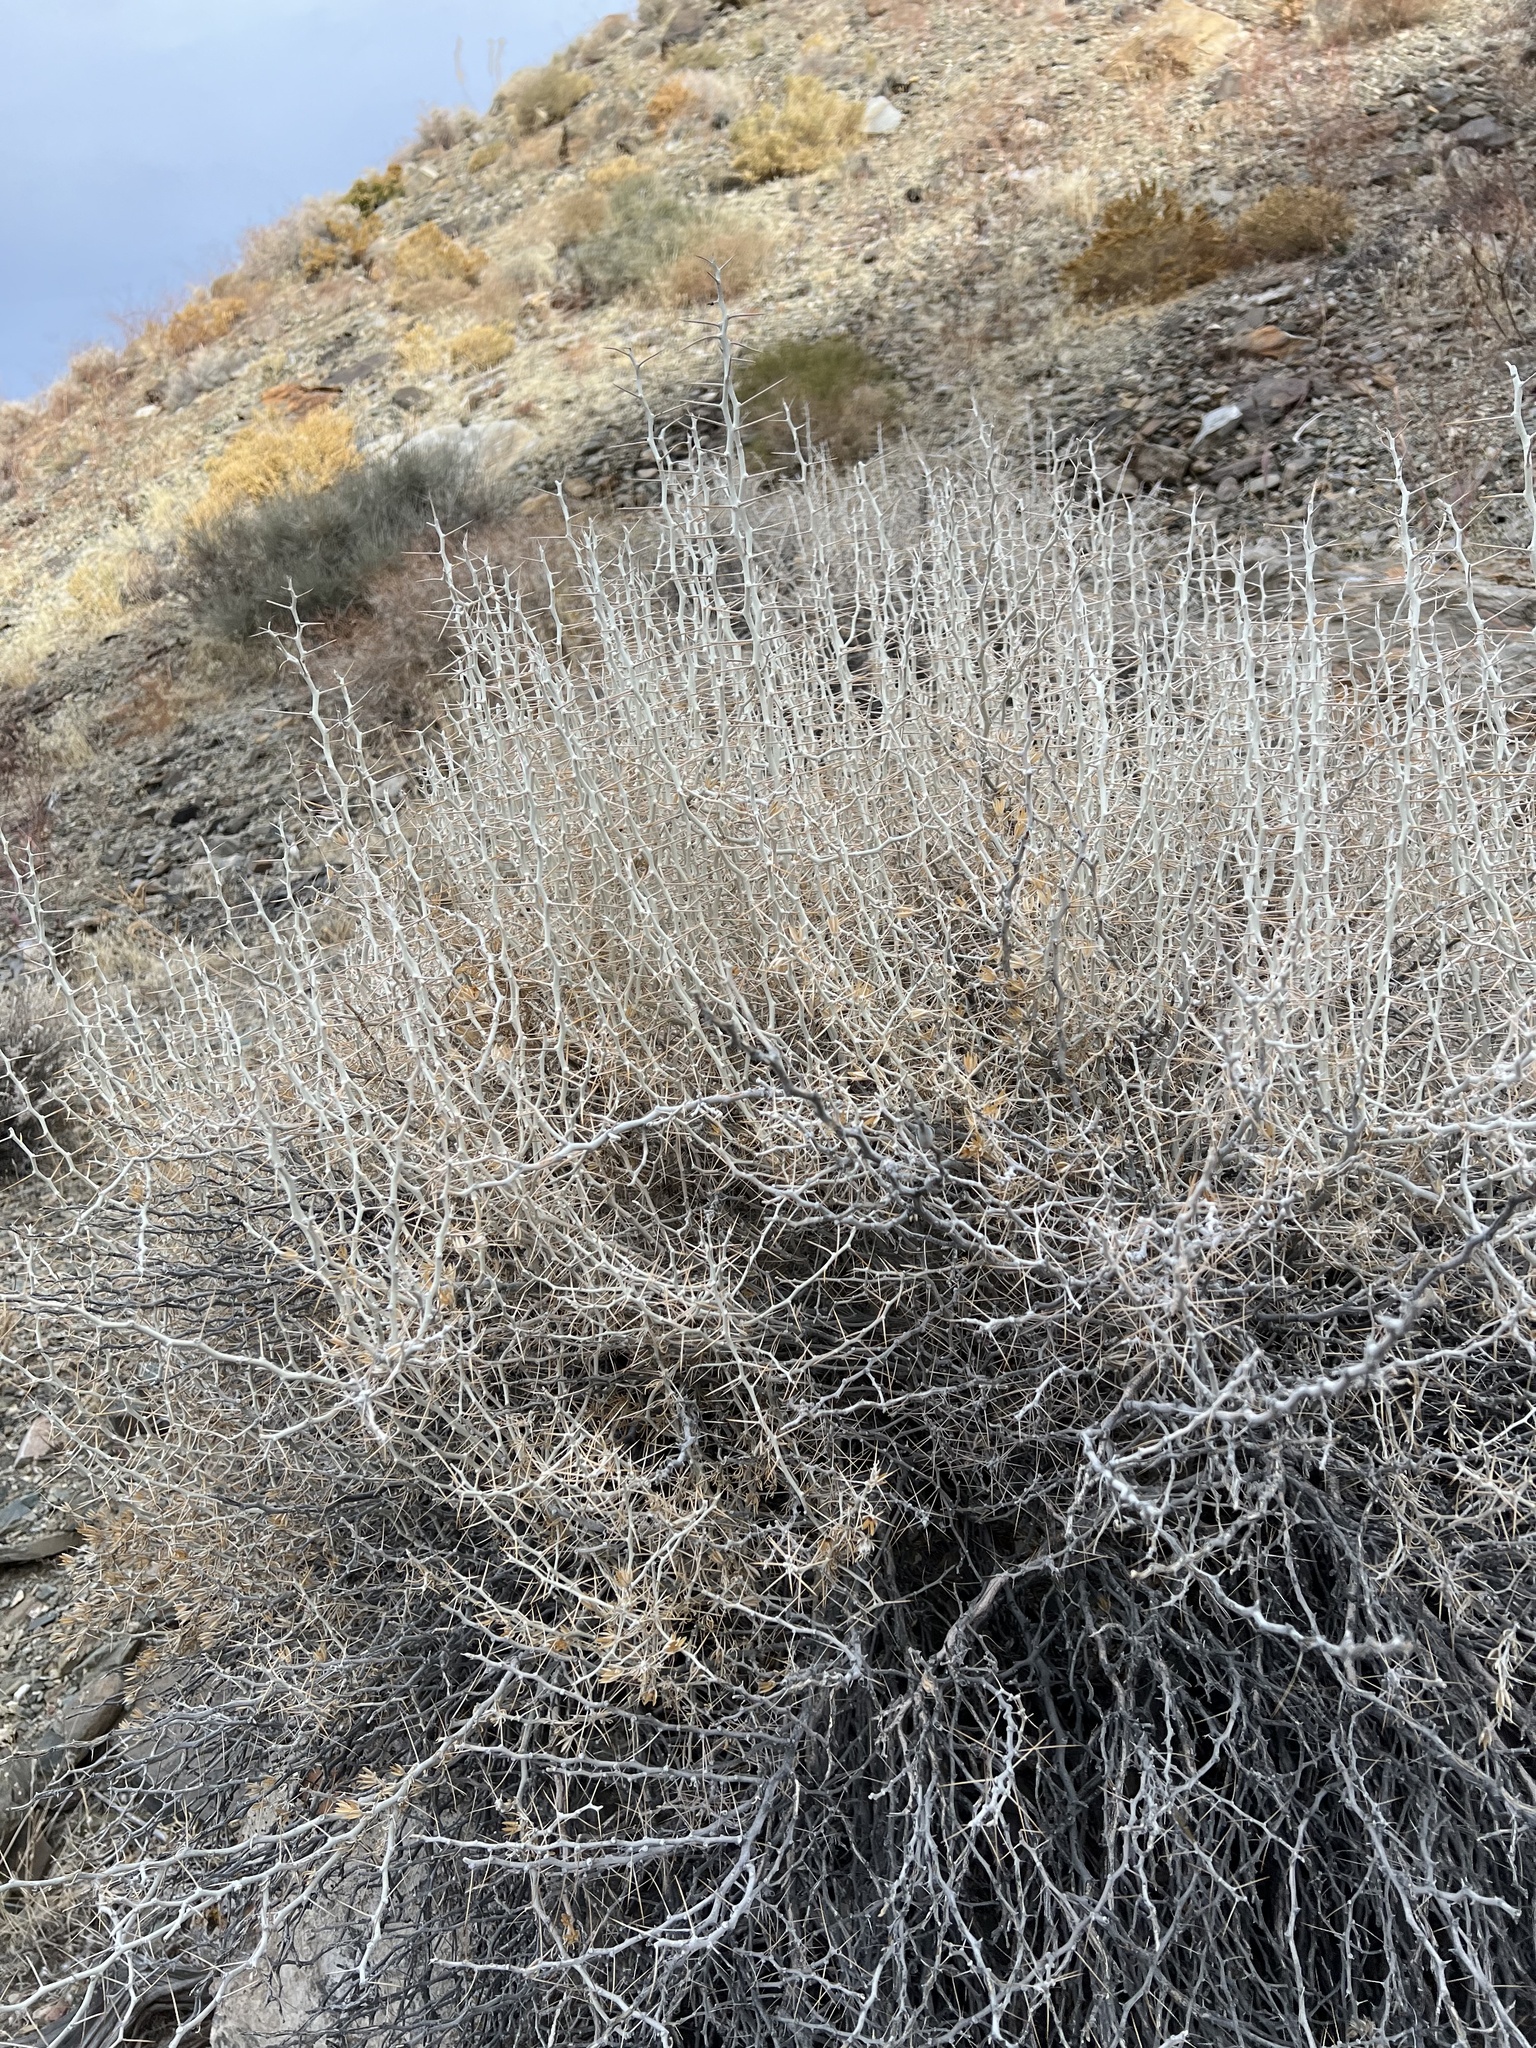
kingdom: Plantae
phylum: Tracheophyta
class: Magnoliopsida
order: Asterales
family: Asteraceae
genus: Tetradymia
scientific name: Tetradymia axillaris
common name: Long-spine horsebrush
